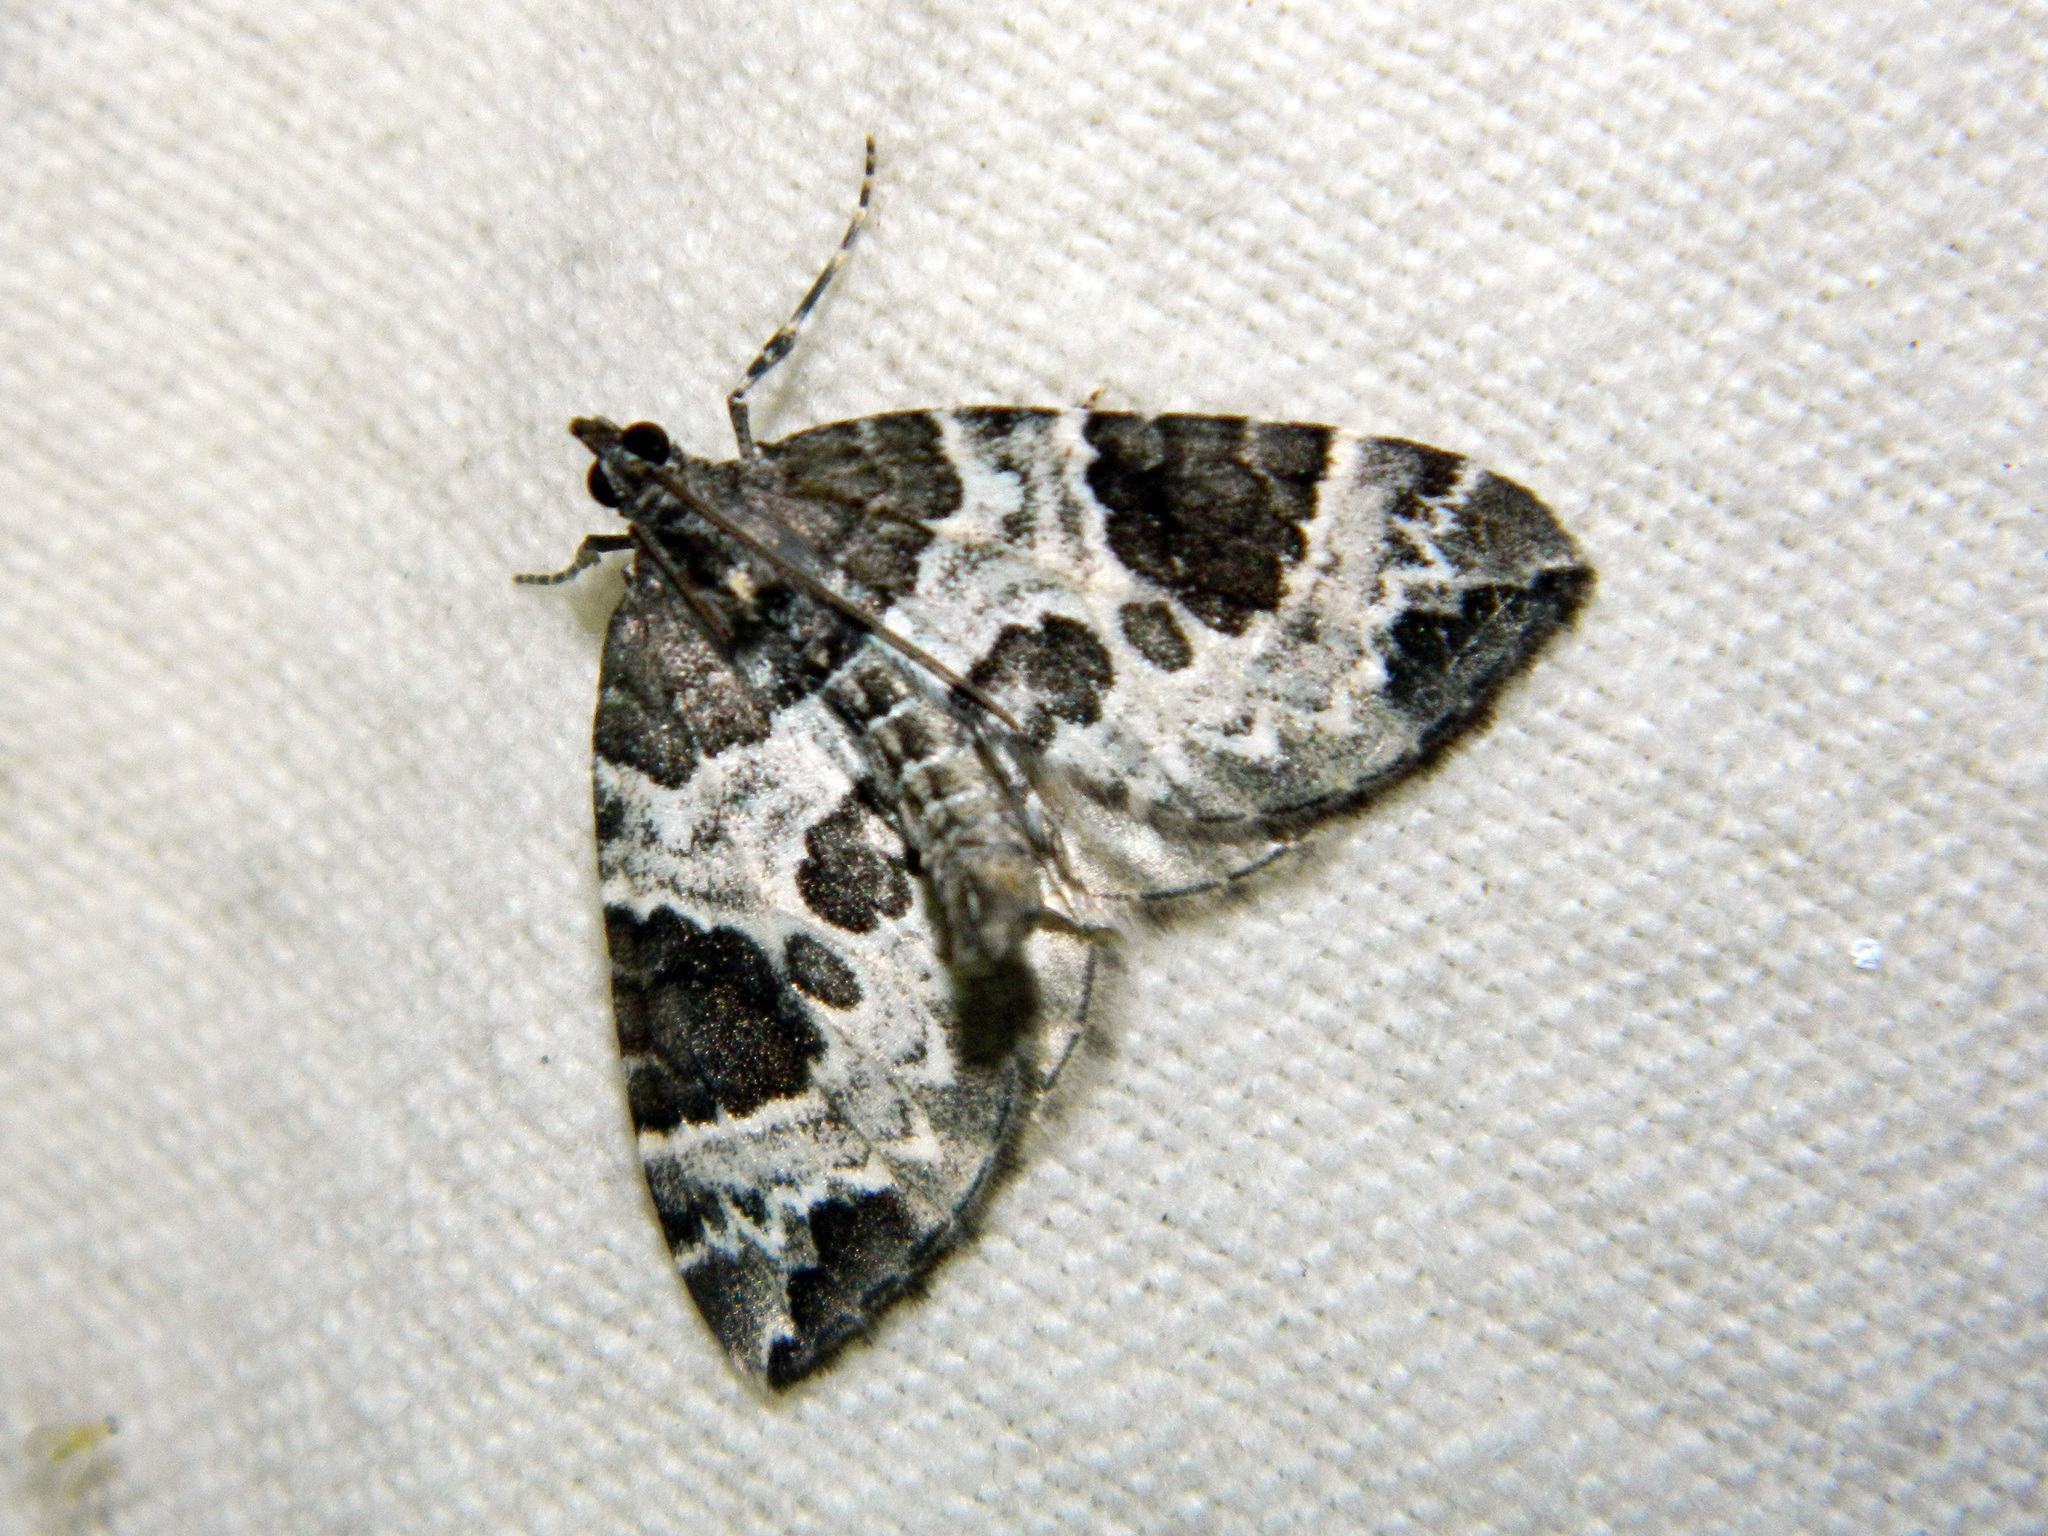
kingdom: Animalia
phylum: Arthropoda
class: Insecta
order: Lepidoptera
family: Geometridae
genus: Eulithis
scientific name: Eulithis explanata
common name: White eulithis
